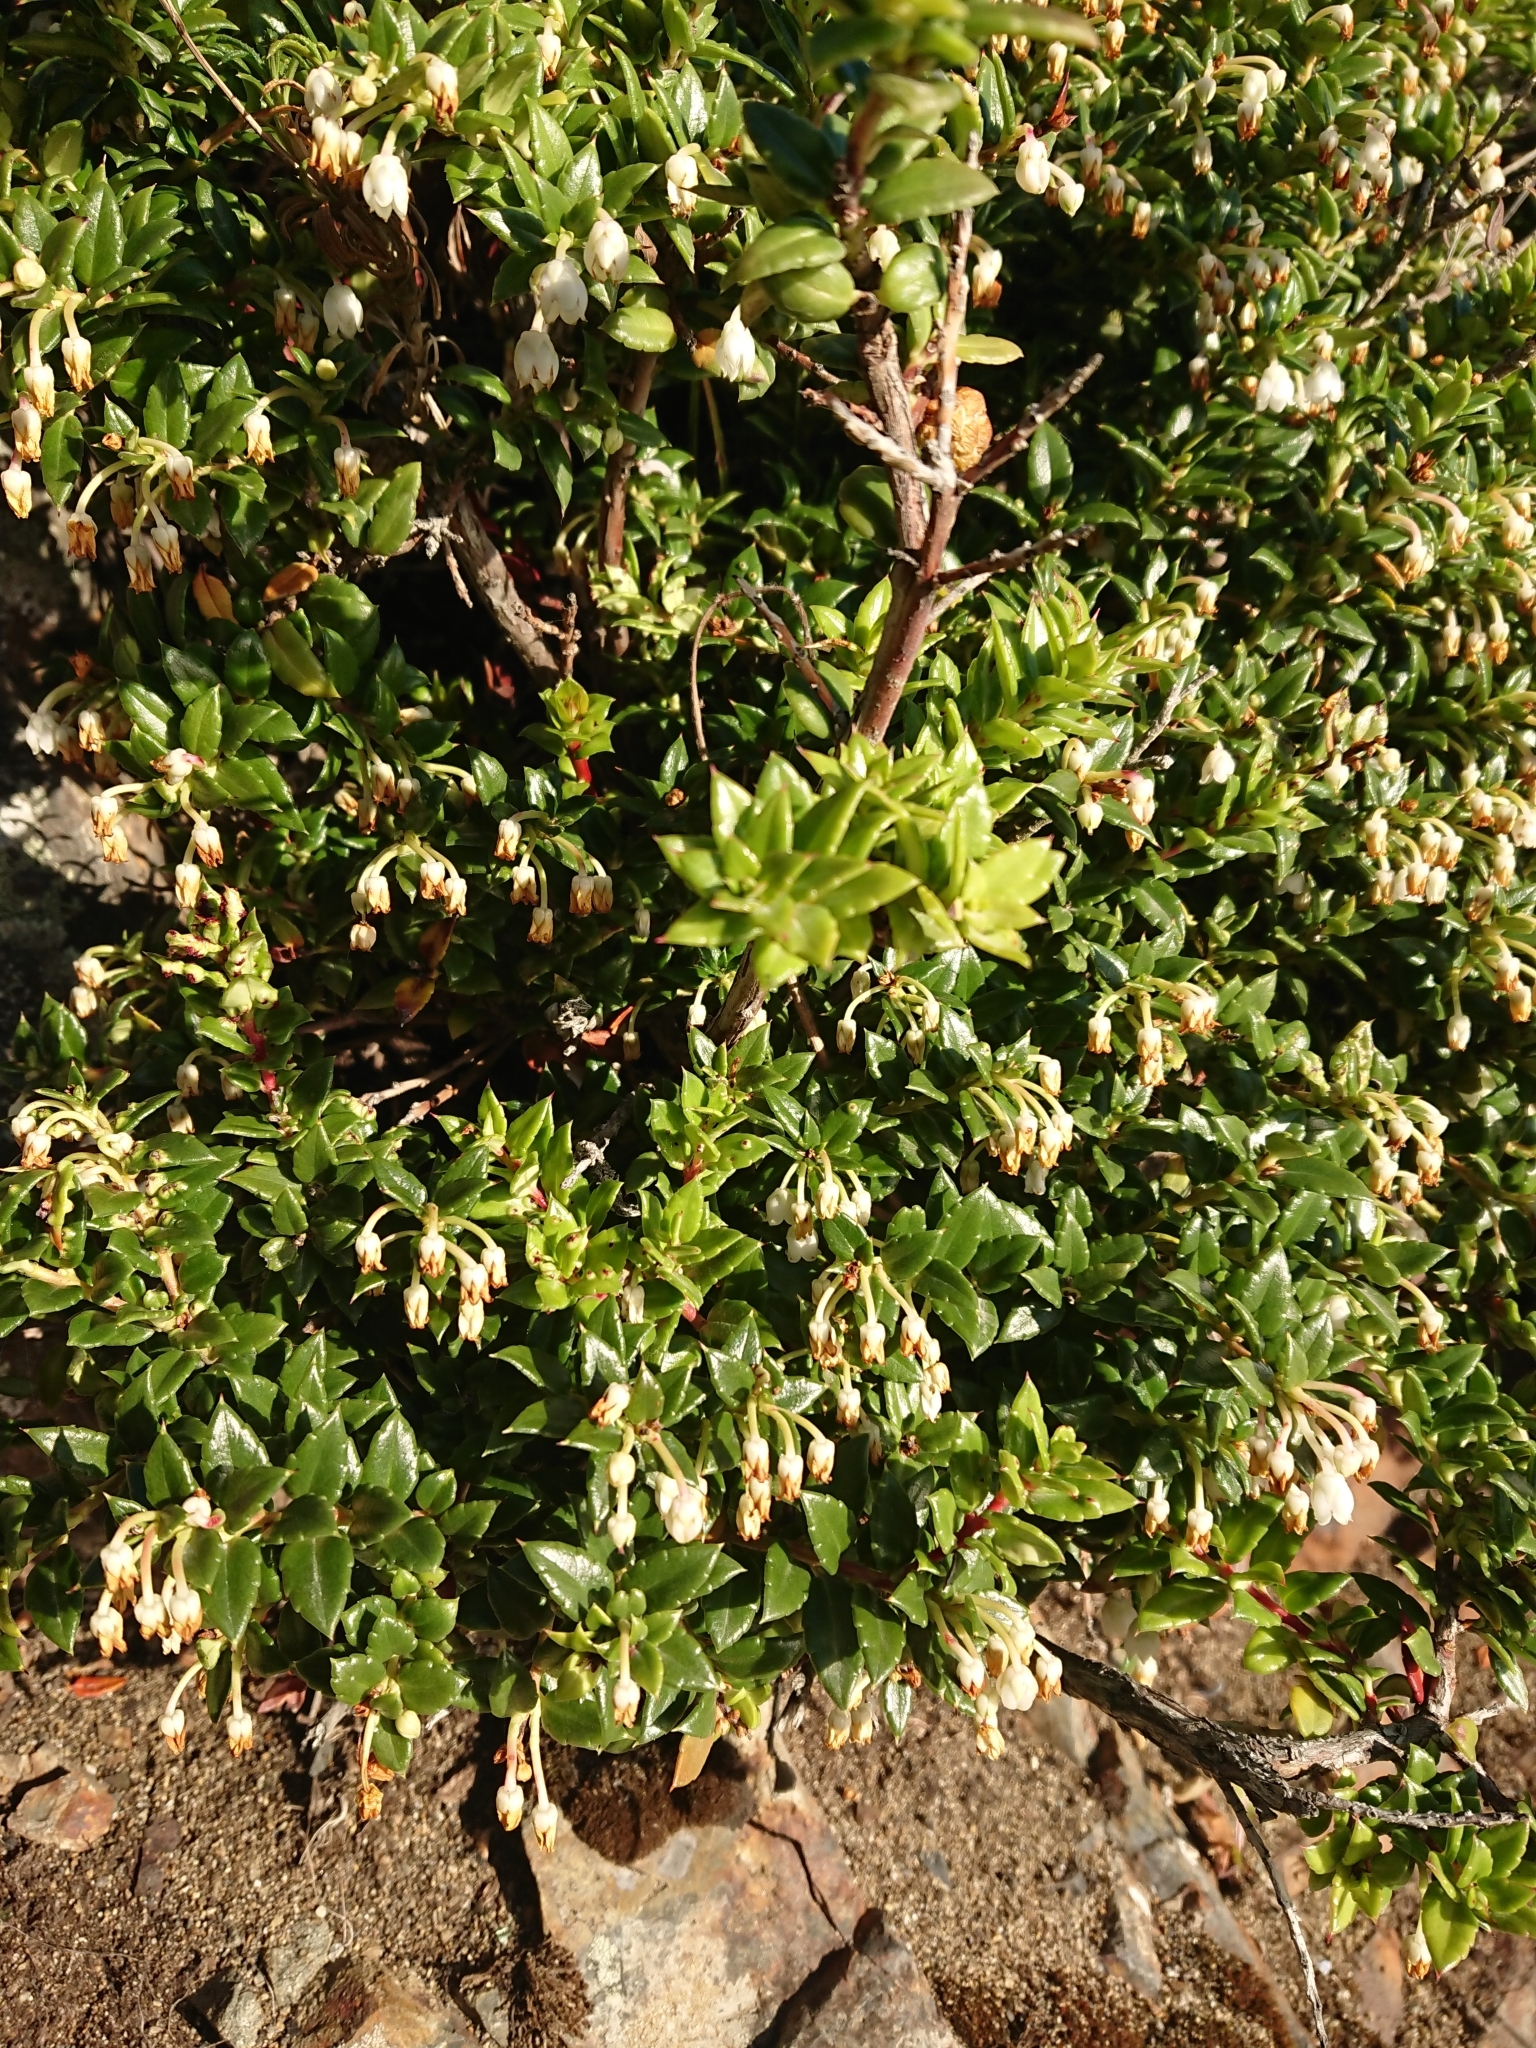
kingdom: Plantae
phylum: Tracheophyta
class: Magnoliopsida
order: Ericales
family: Ericaceae
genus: Gaultheria
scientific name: Gaultheria mucronata
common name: Prickly heath
